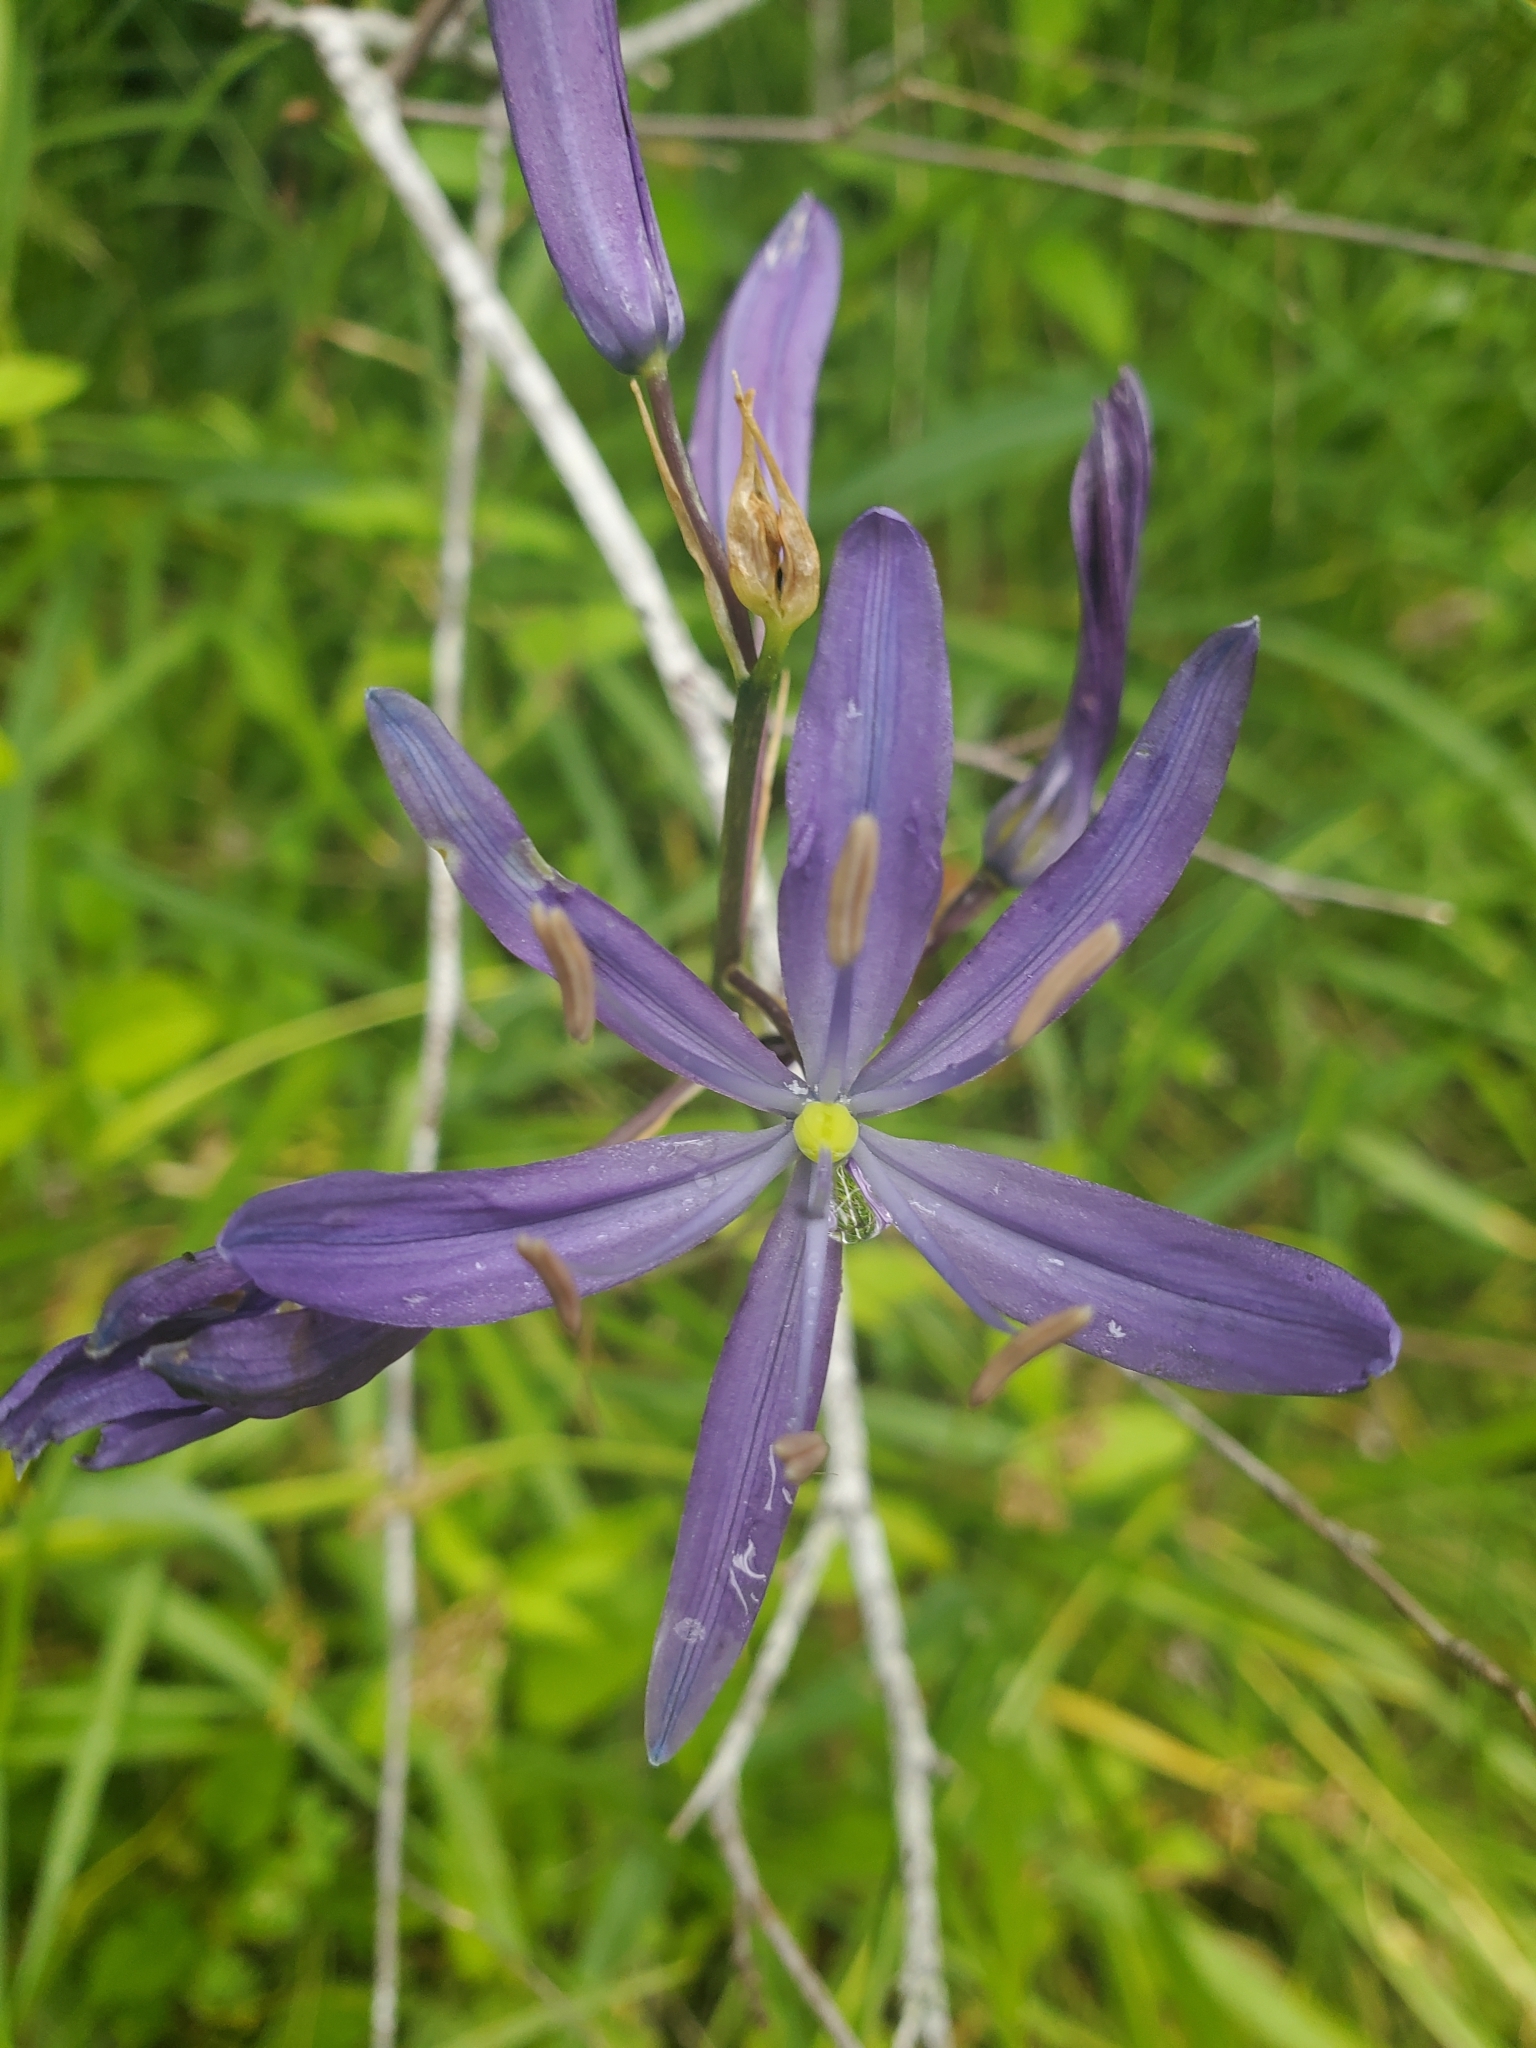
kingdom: Plantae
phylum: Tracheophyta
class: Liliopsida
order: Asparagales
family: Asparagaceae
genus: Camassia
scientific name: Camassia quamash
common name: Common camas
